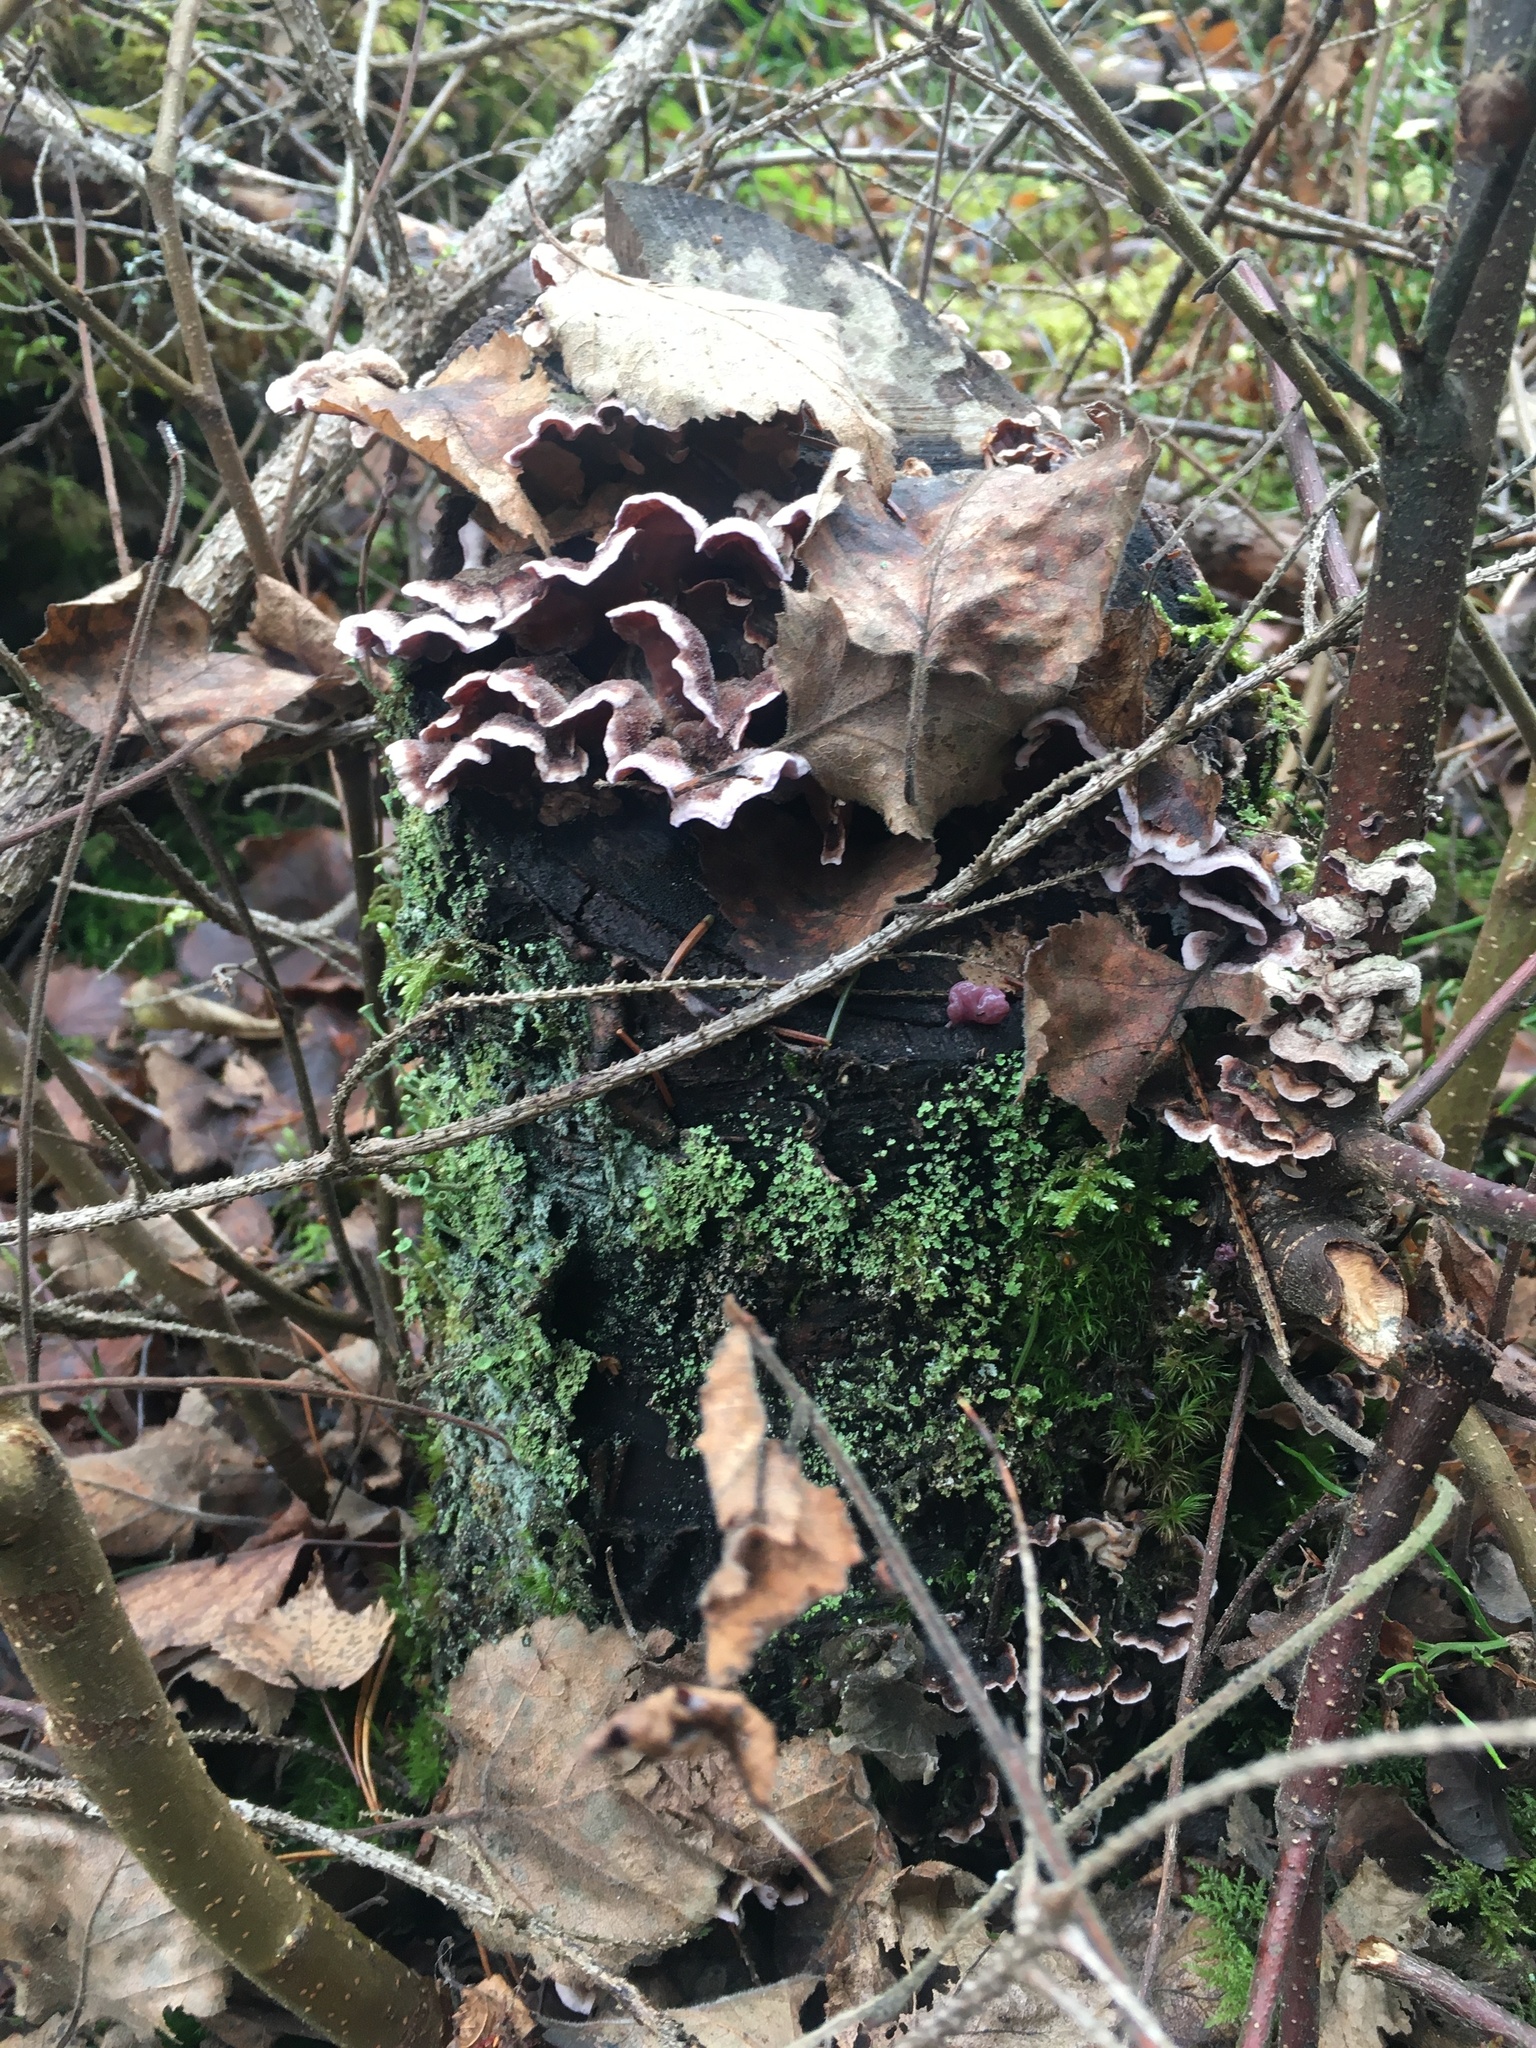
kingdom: Fungi
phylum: Basidiomycota
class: Agaricomycetes
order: Agaricales
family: Cyphellaceae
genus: Chondrostereum
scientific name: Chondrostereum purpureum
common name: Silver leaf disease
